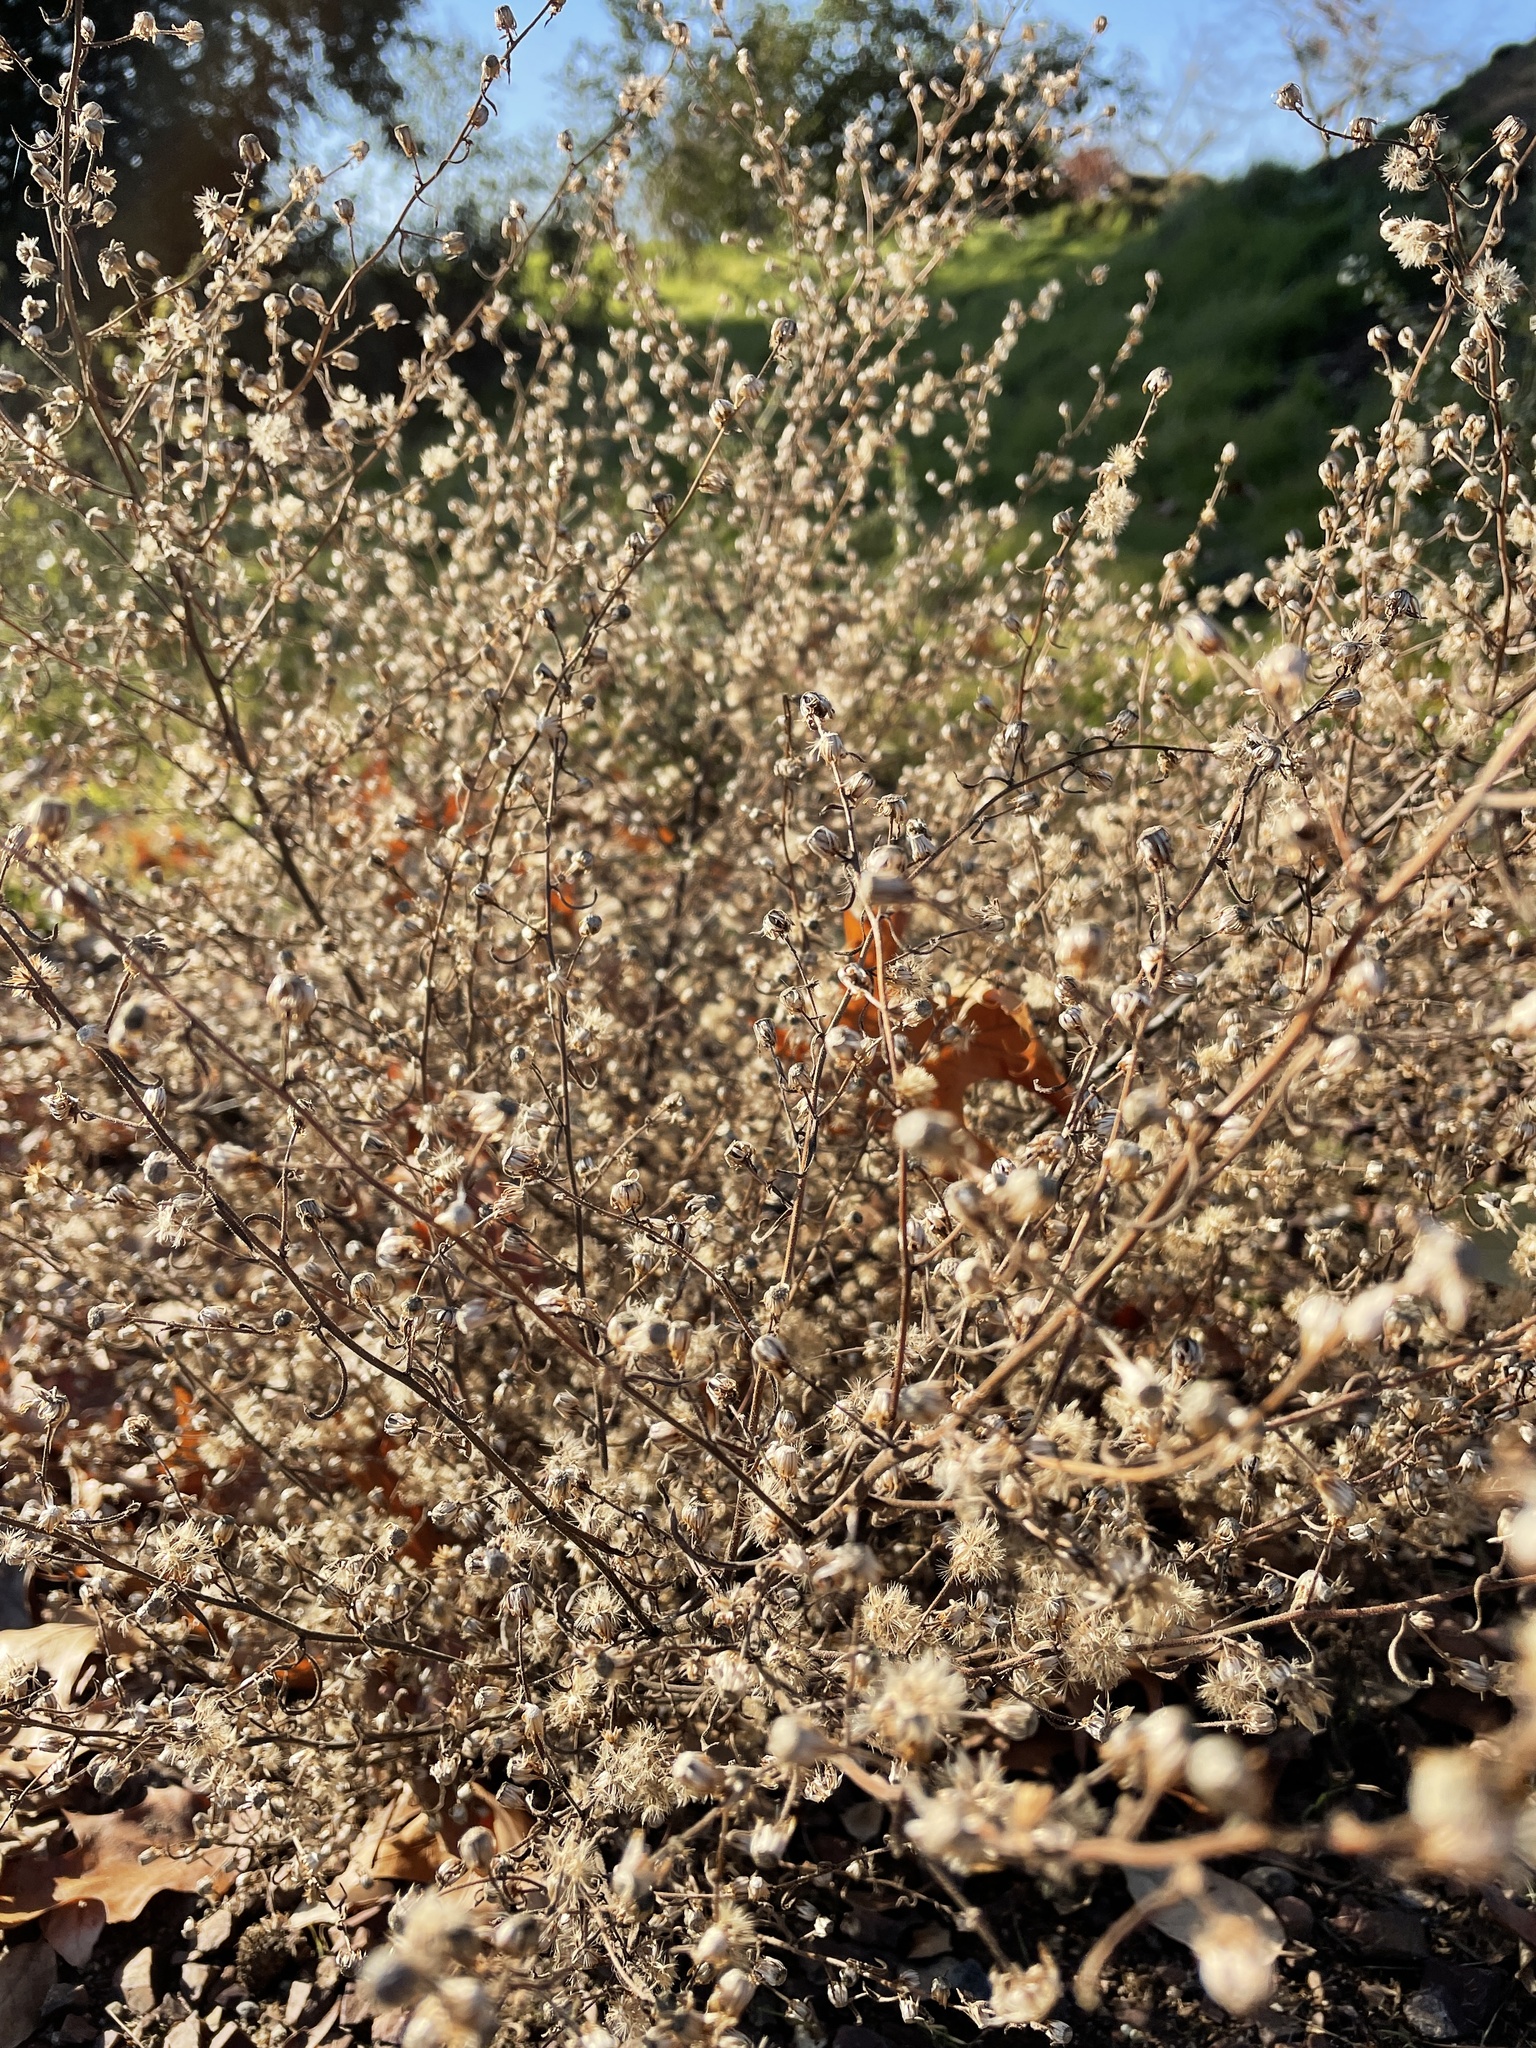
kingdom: Plantae
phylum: Tracheophyta
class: Magnoliopsida
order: Asterales
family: Asteraceae
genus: Dittrichia
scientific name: Dittrichia graveolens
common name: Stinking fleabane
